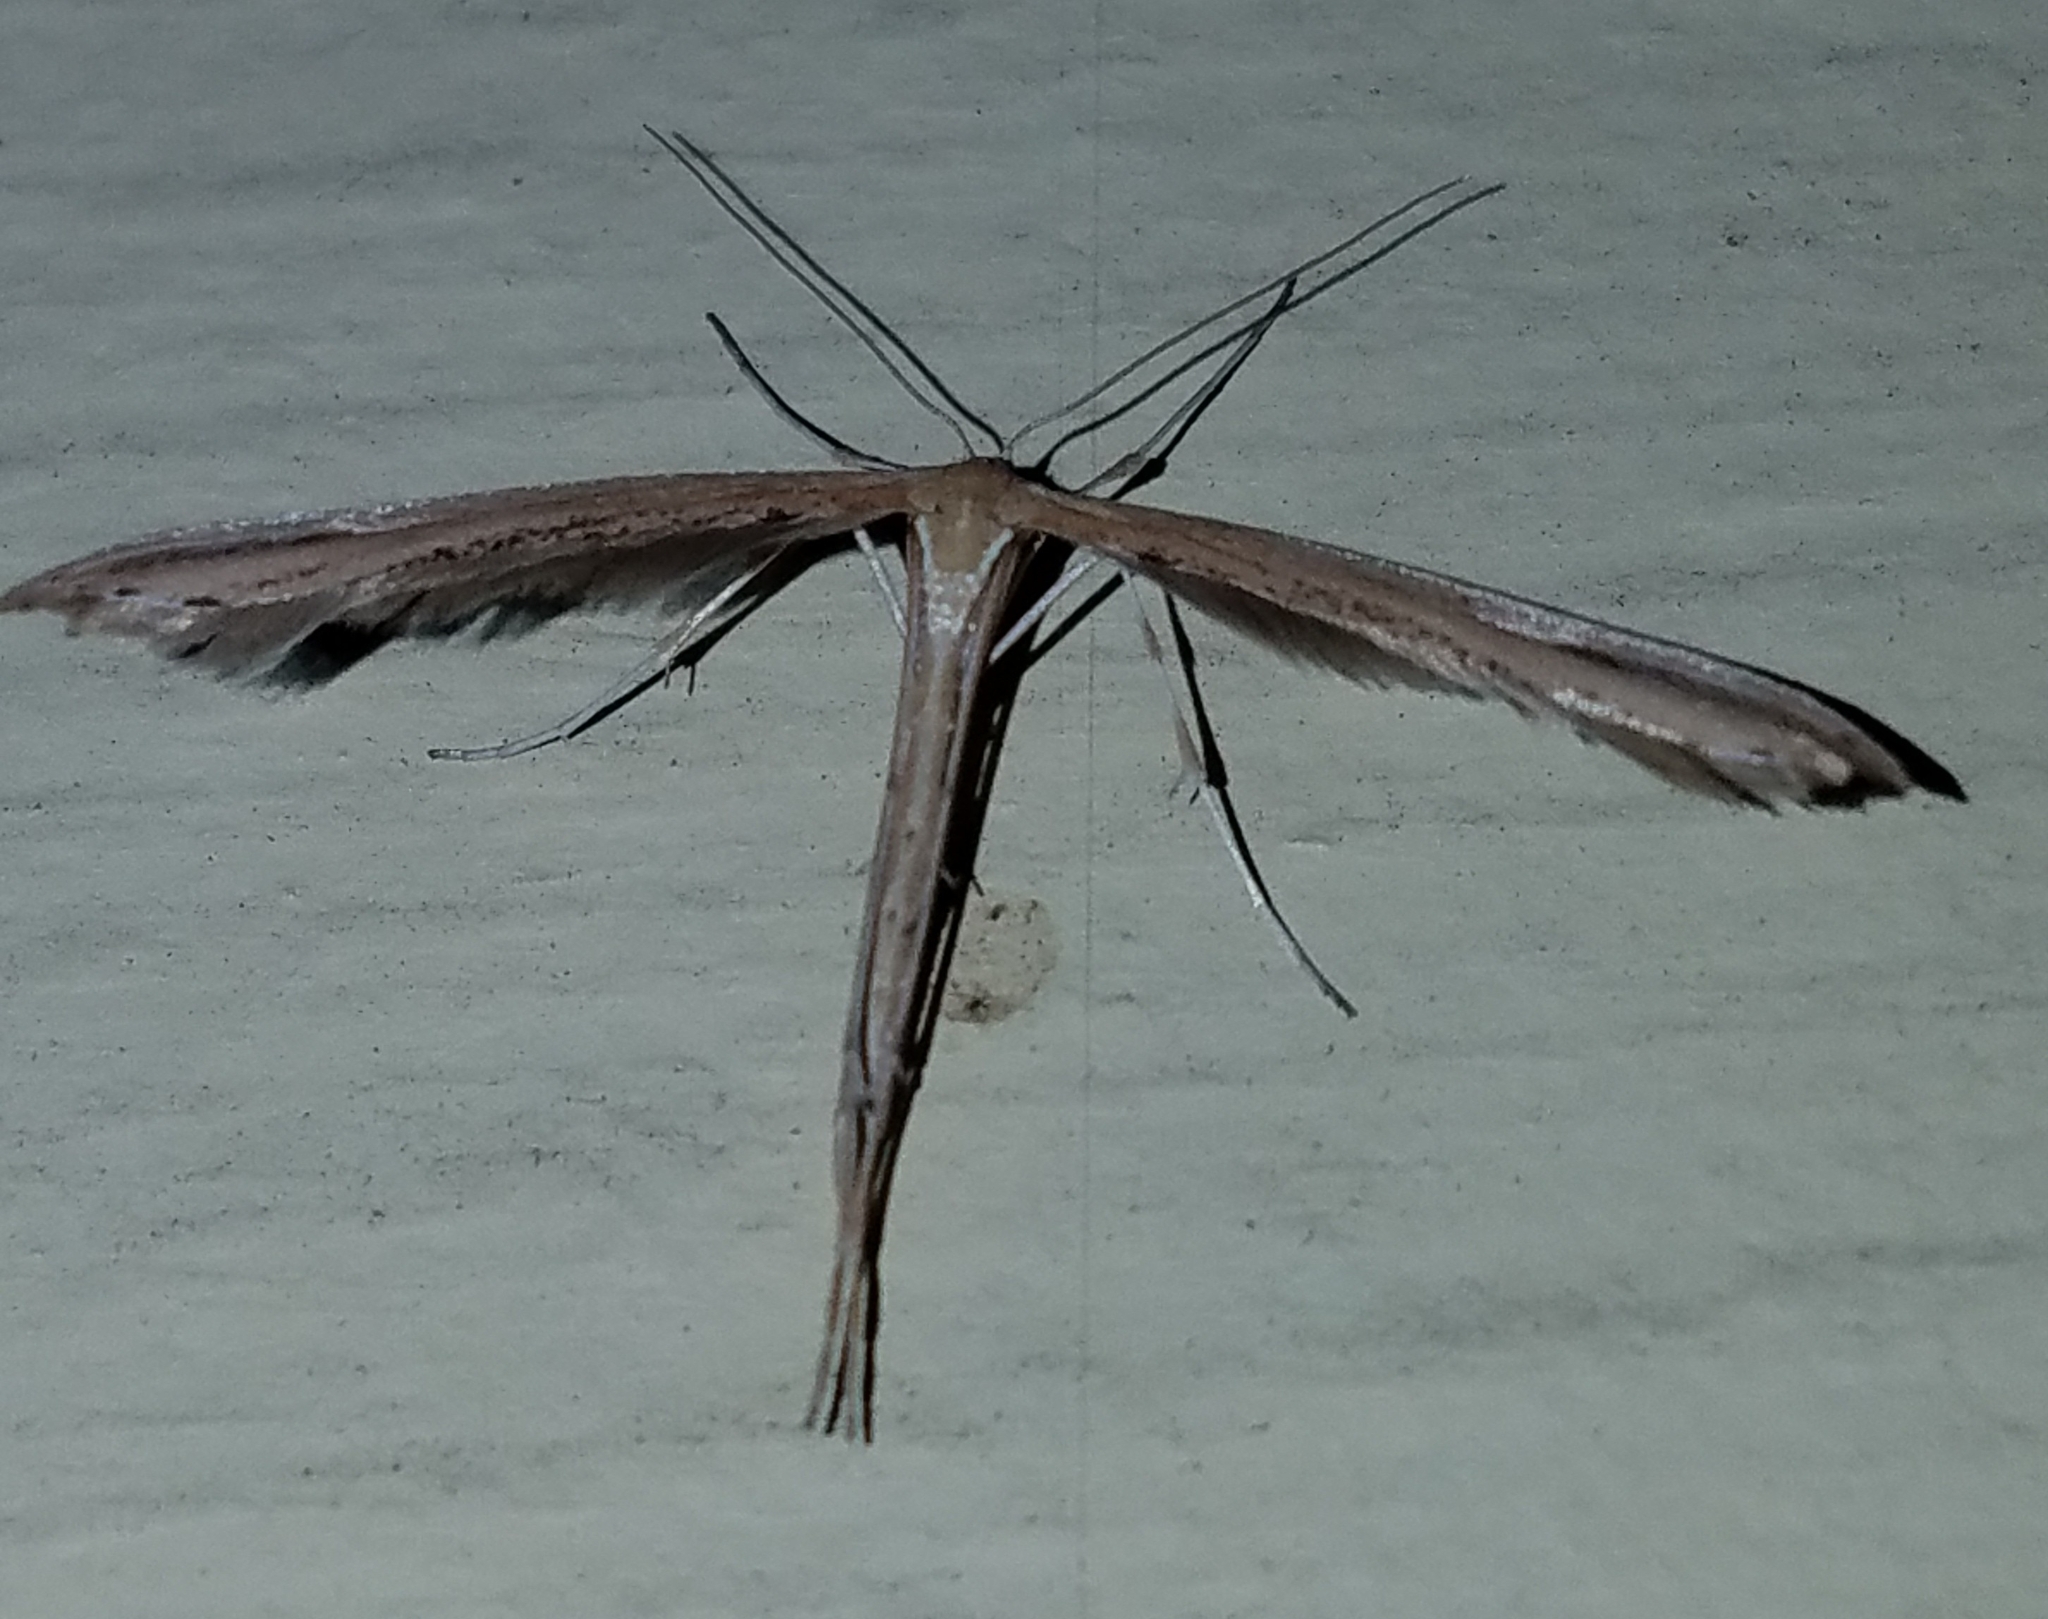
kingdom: Animalia
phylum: Arthropoda
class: Insecta
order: Lepidoptera
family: Pterophoridae
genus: Emmelina
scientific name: Emmelina monodactyla
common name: Common plume
